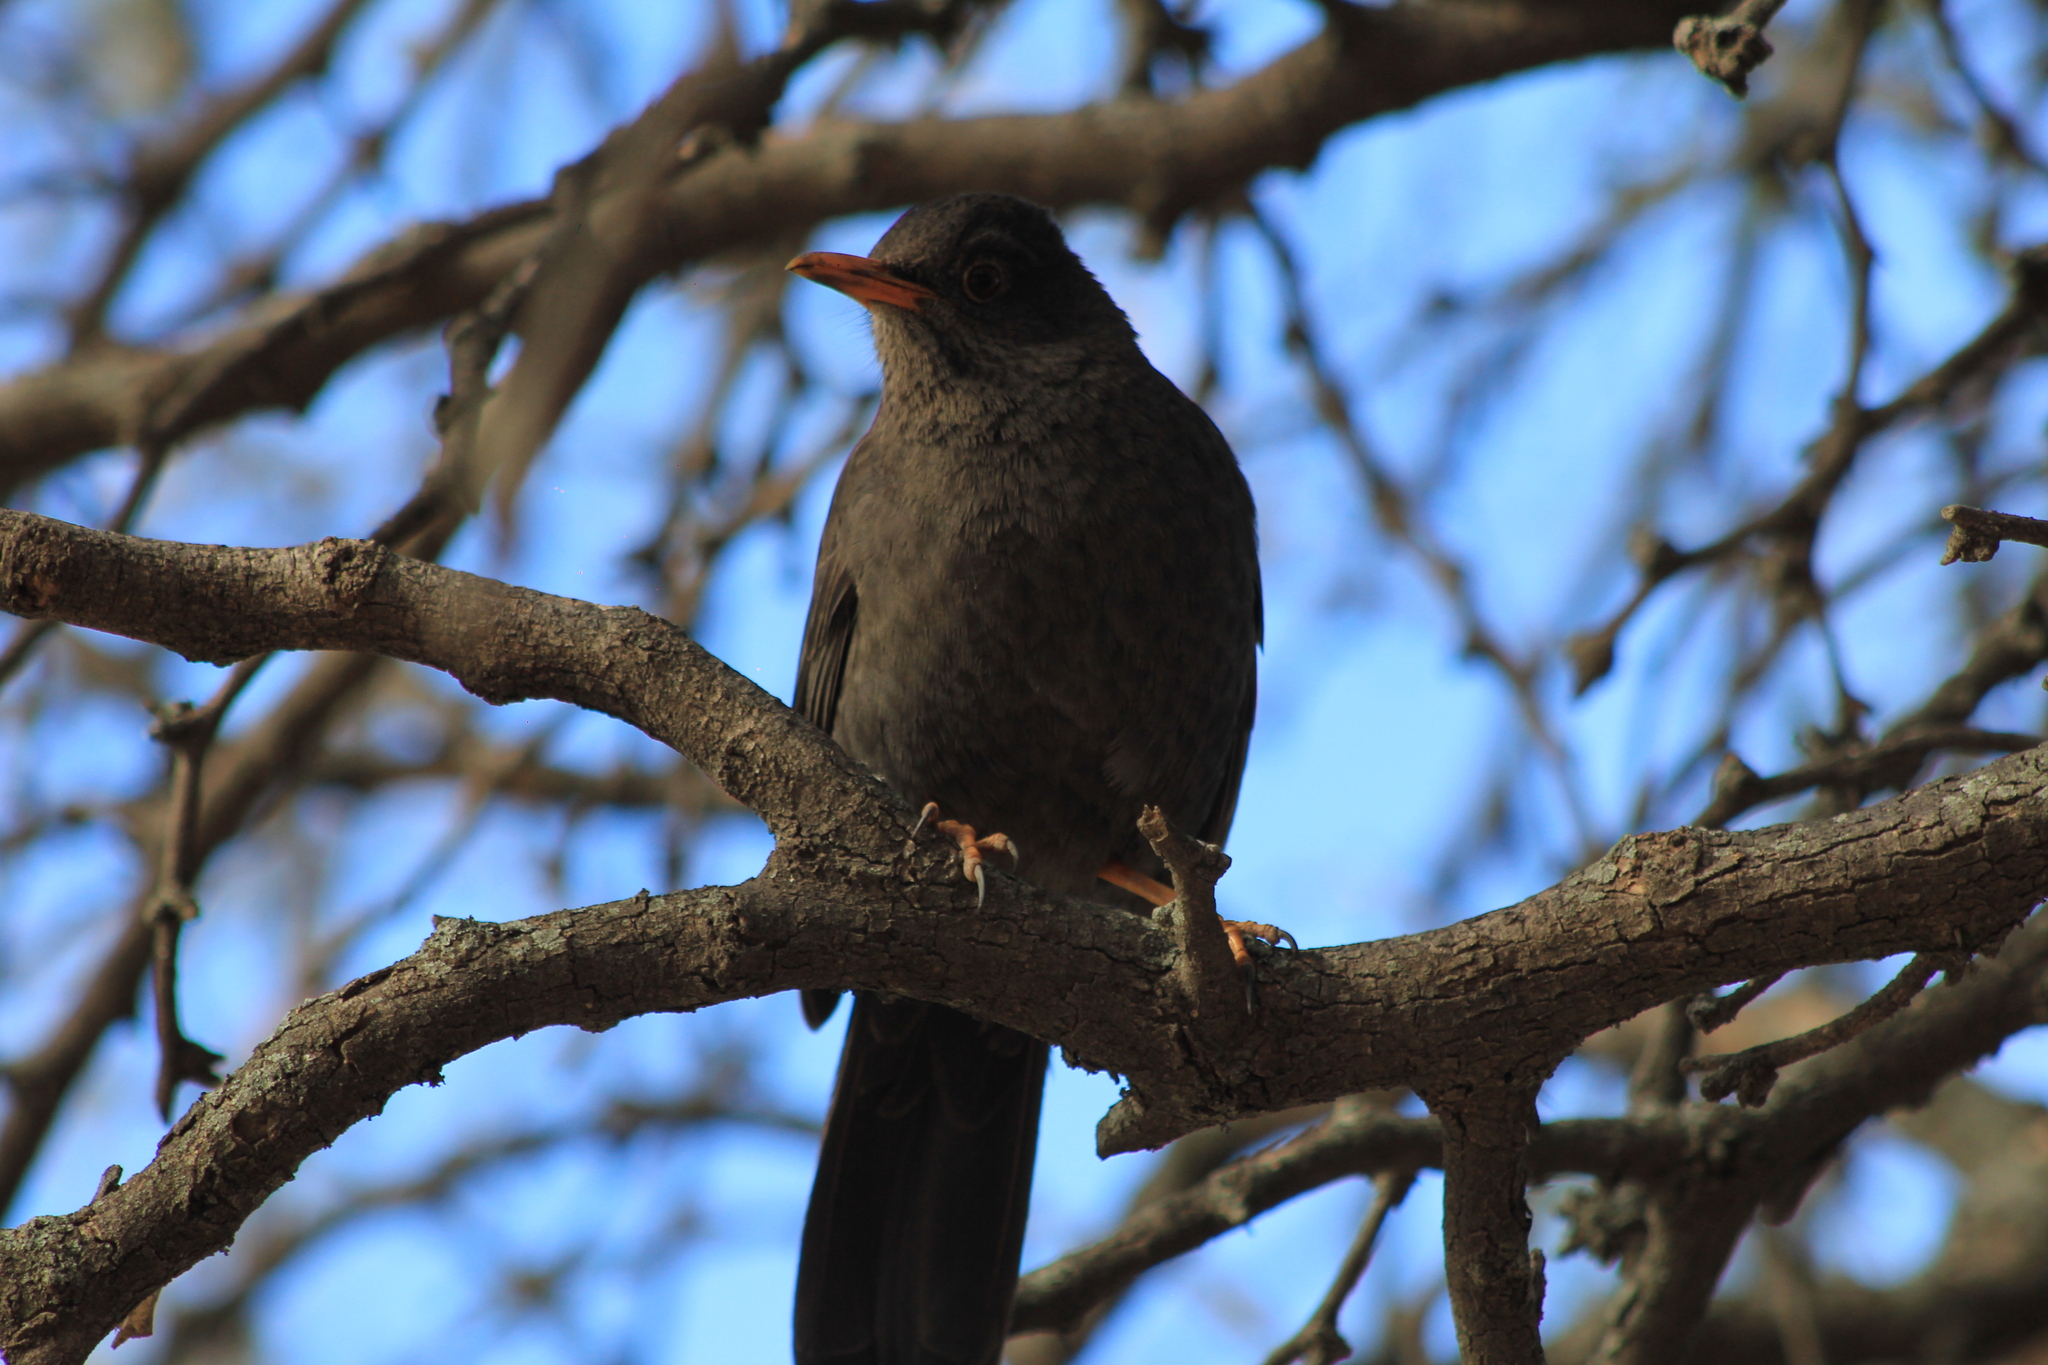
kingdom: Animalia
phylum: Chordata
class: Aves
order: Passeriformes
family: Turdidae
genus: Turdus
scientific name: Turdus chiguanco
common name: Chiguanco thrush
